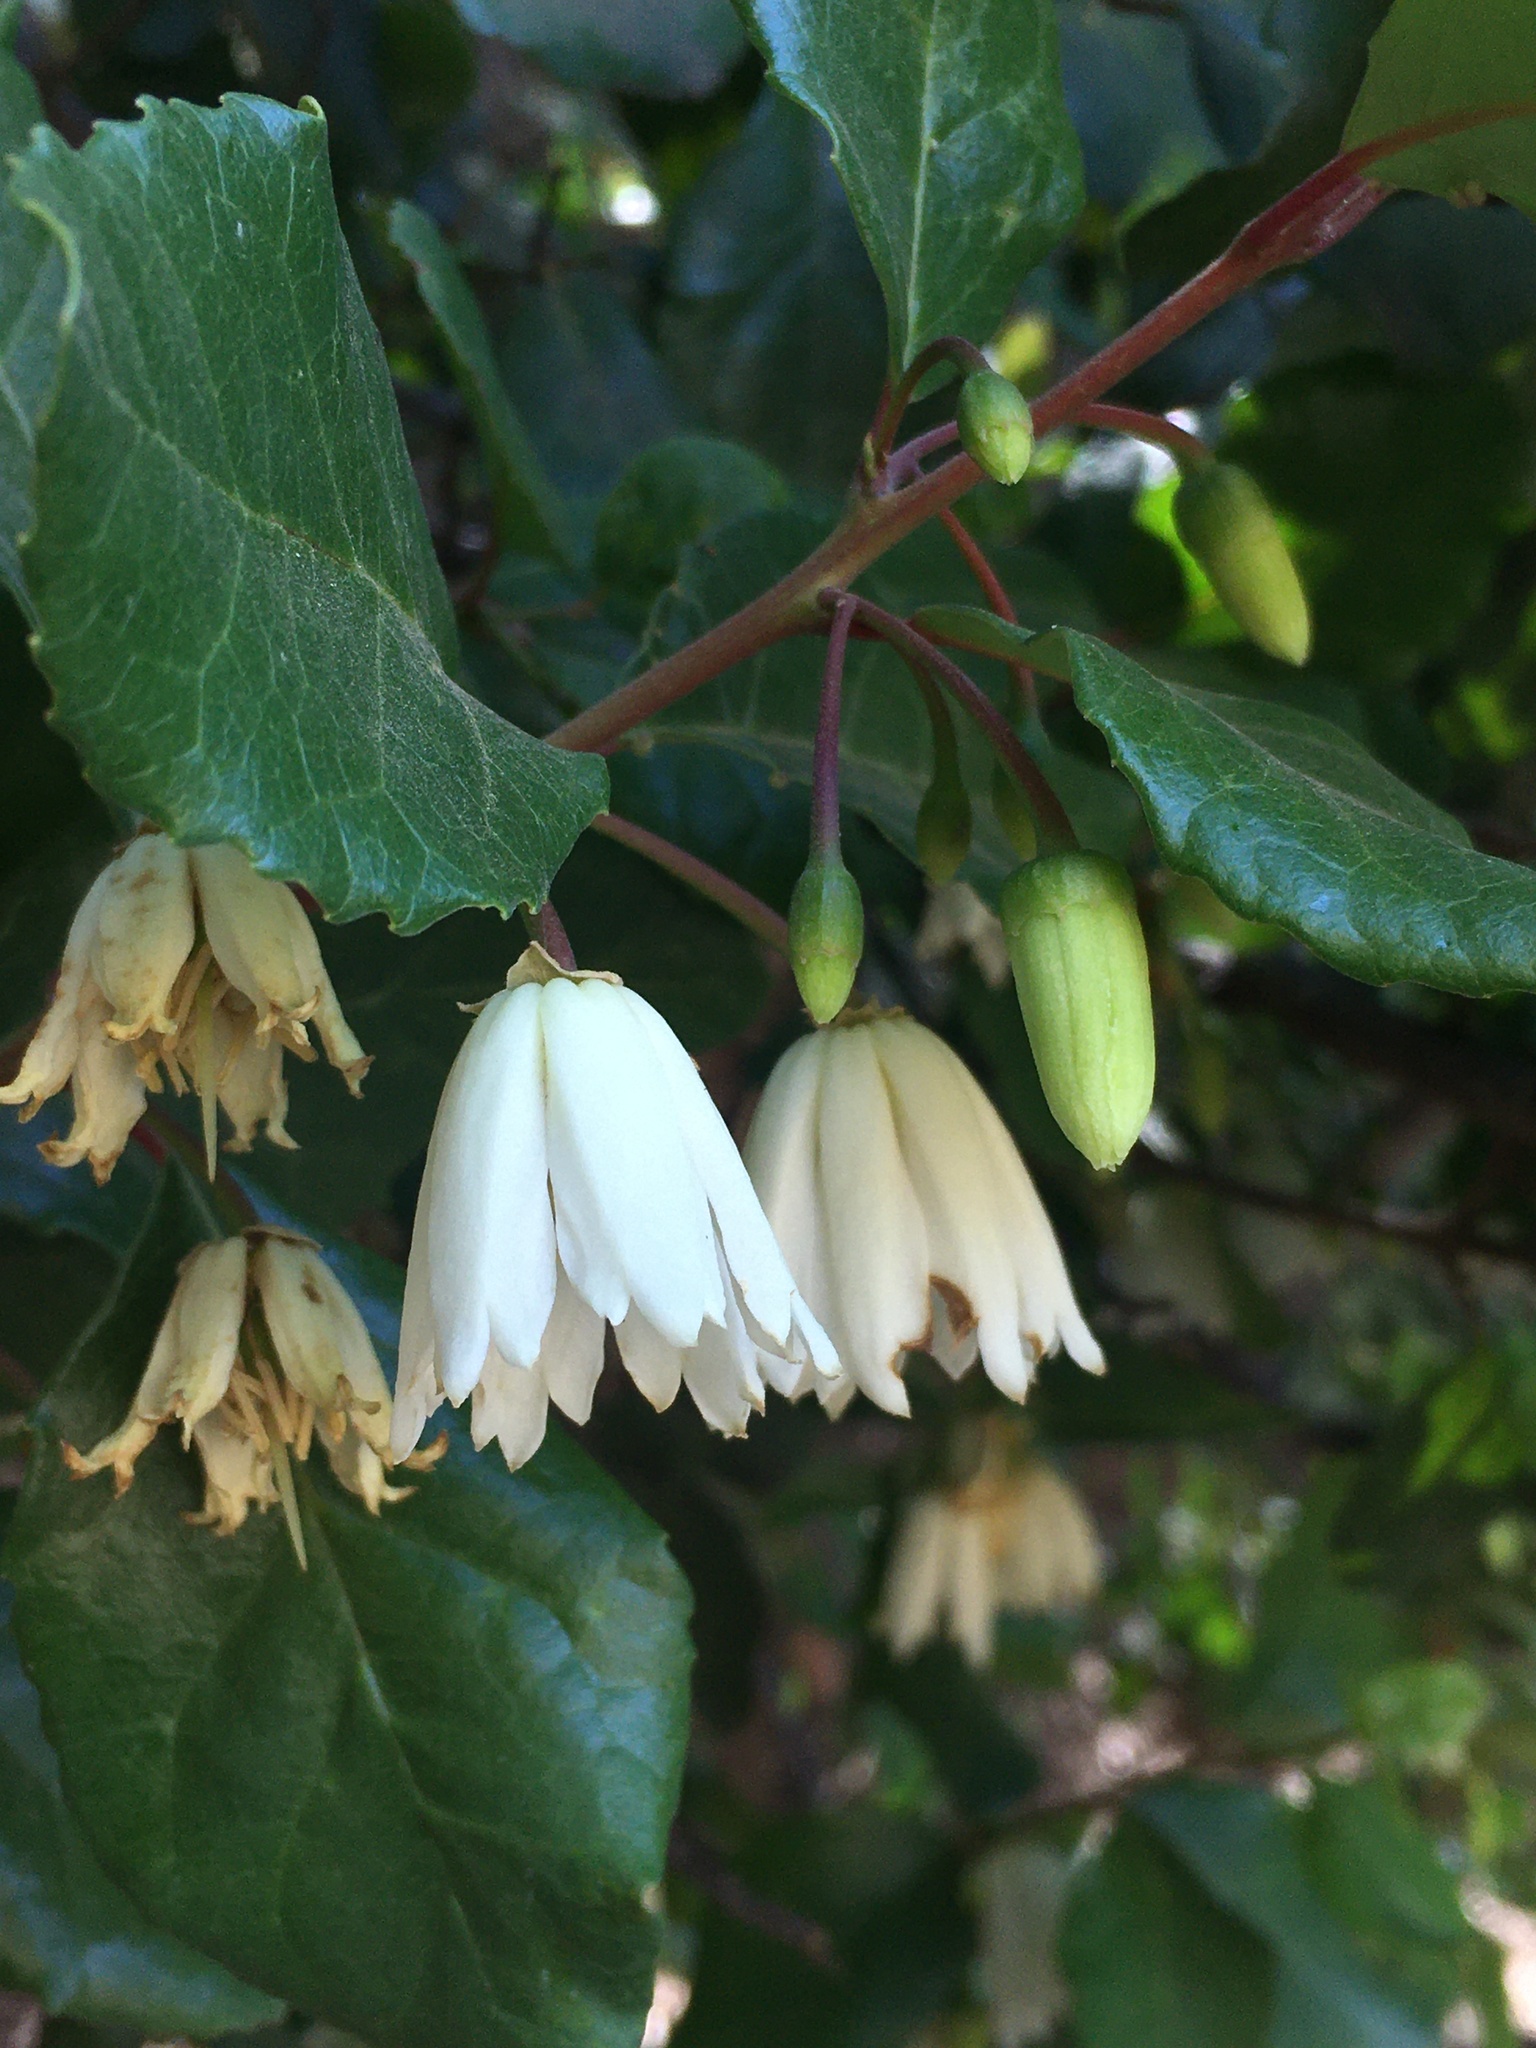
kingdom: Plantae
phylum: Tracheophyta
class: Magnoliopsida
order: Oxalidales
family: Elaeocarpaceae
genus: Crinodendron
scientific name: Crinodendron patagua
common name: Lily-of-the-valley-tree
